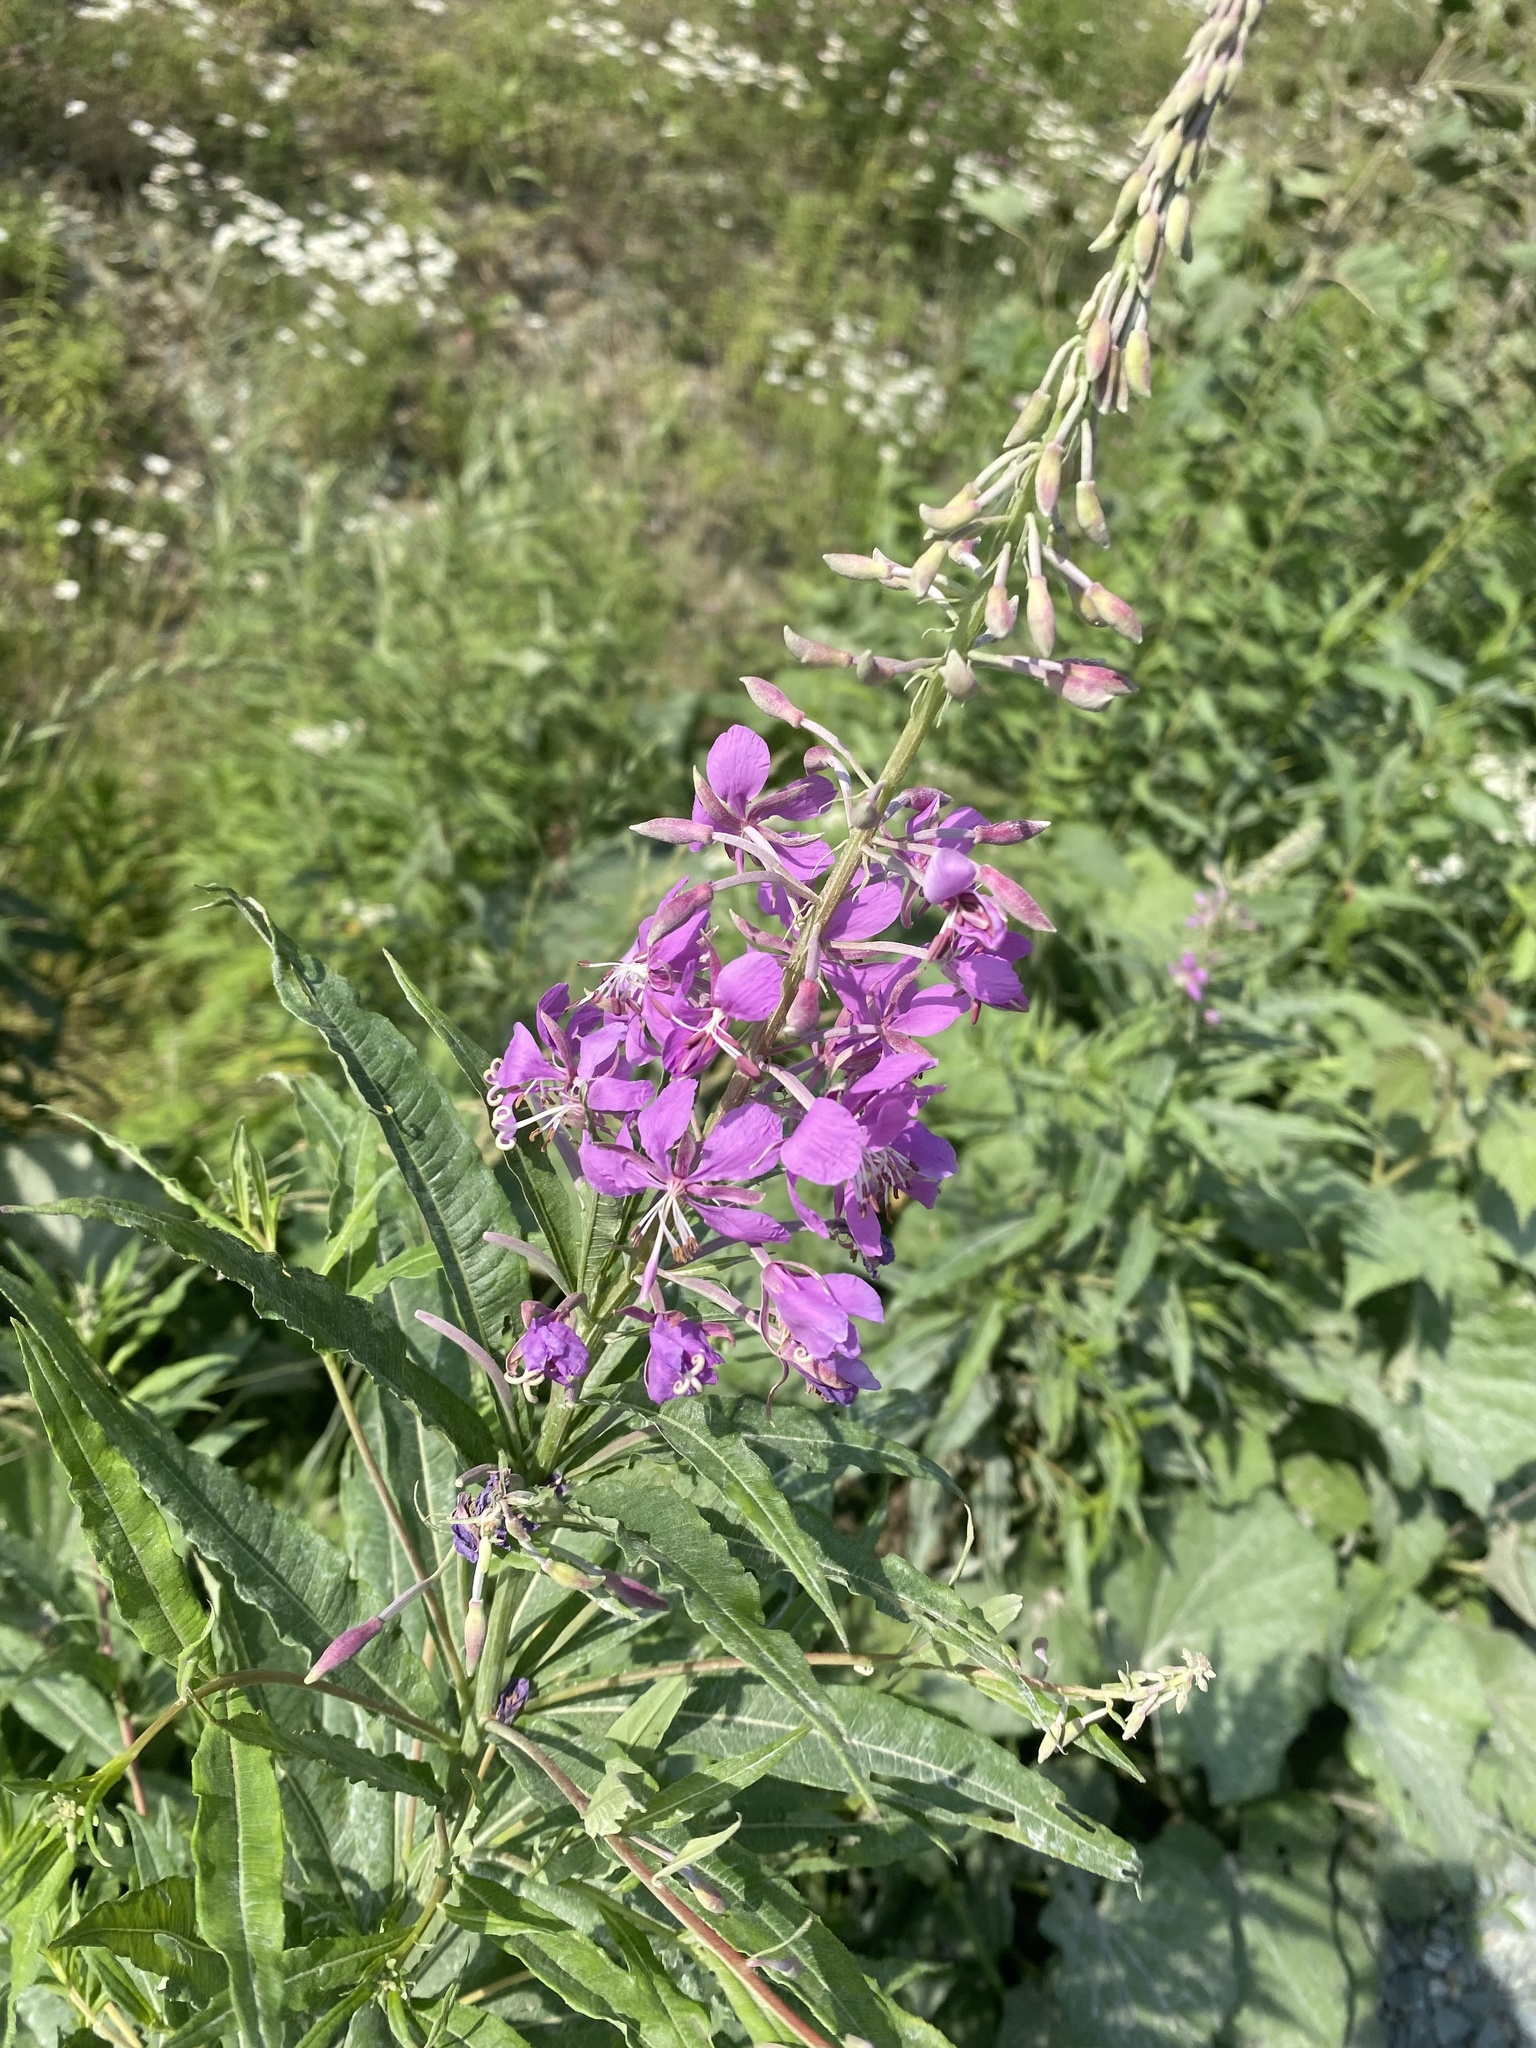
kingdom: Plantae
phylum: Tracheophyta
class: Magnoliopsida
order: Myrtales
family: Onagraceae
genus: Chamaenerion
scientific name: Chamaenerion angustifolium
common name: Fireweed
